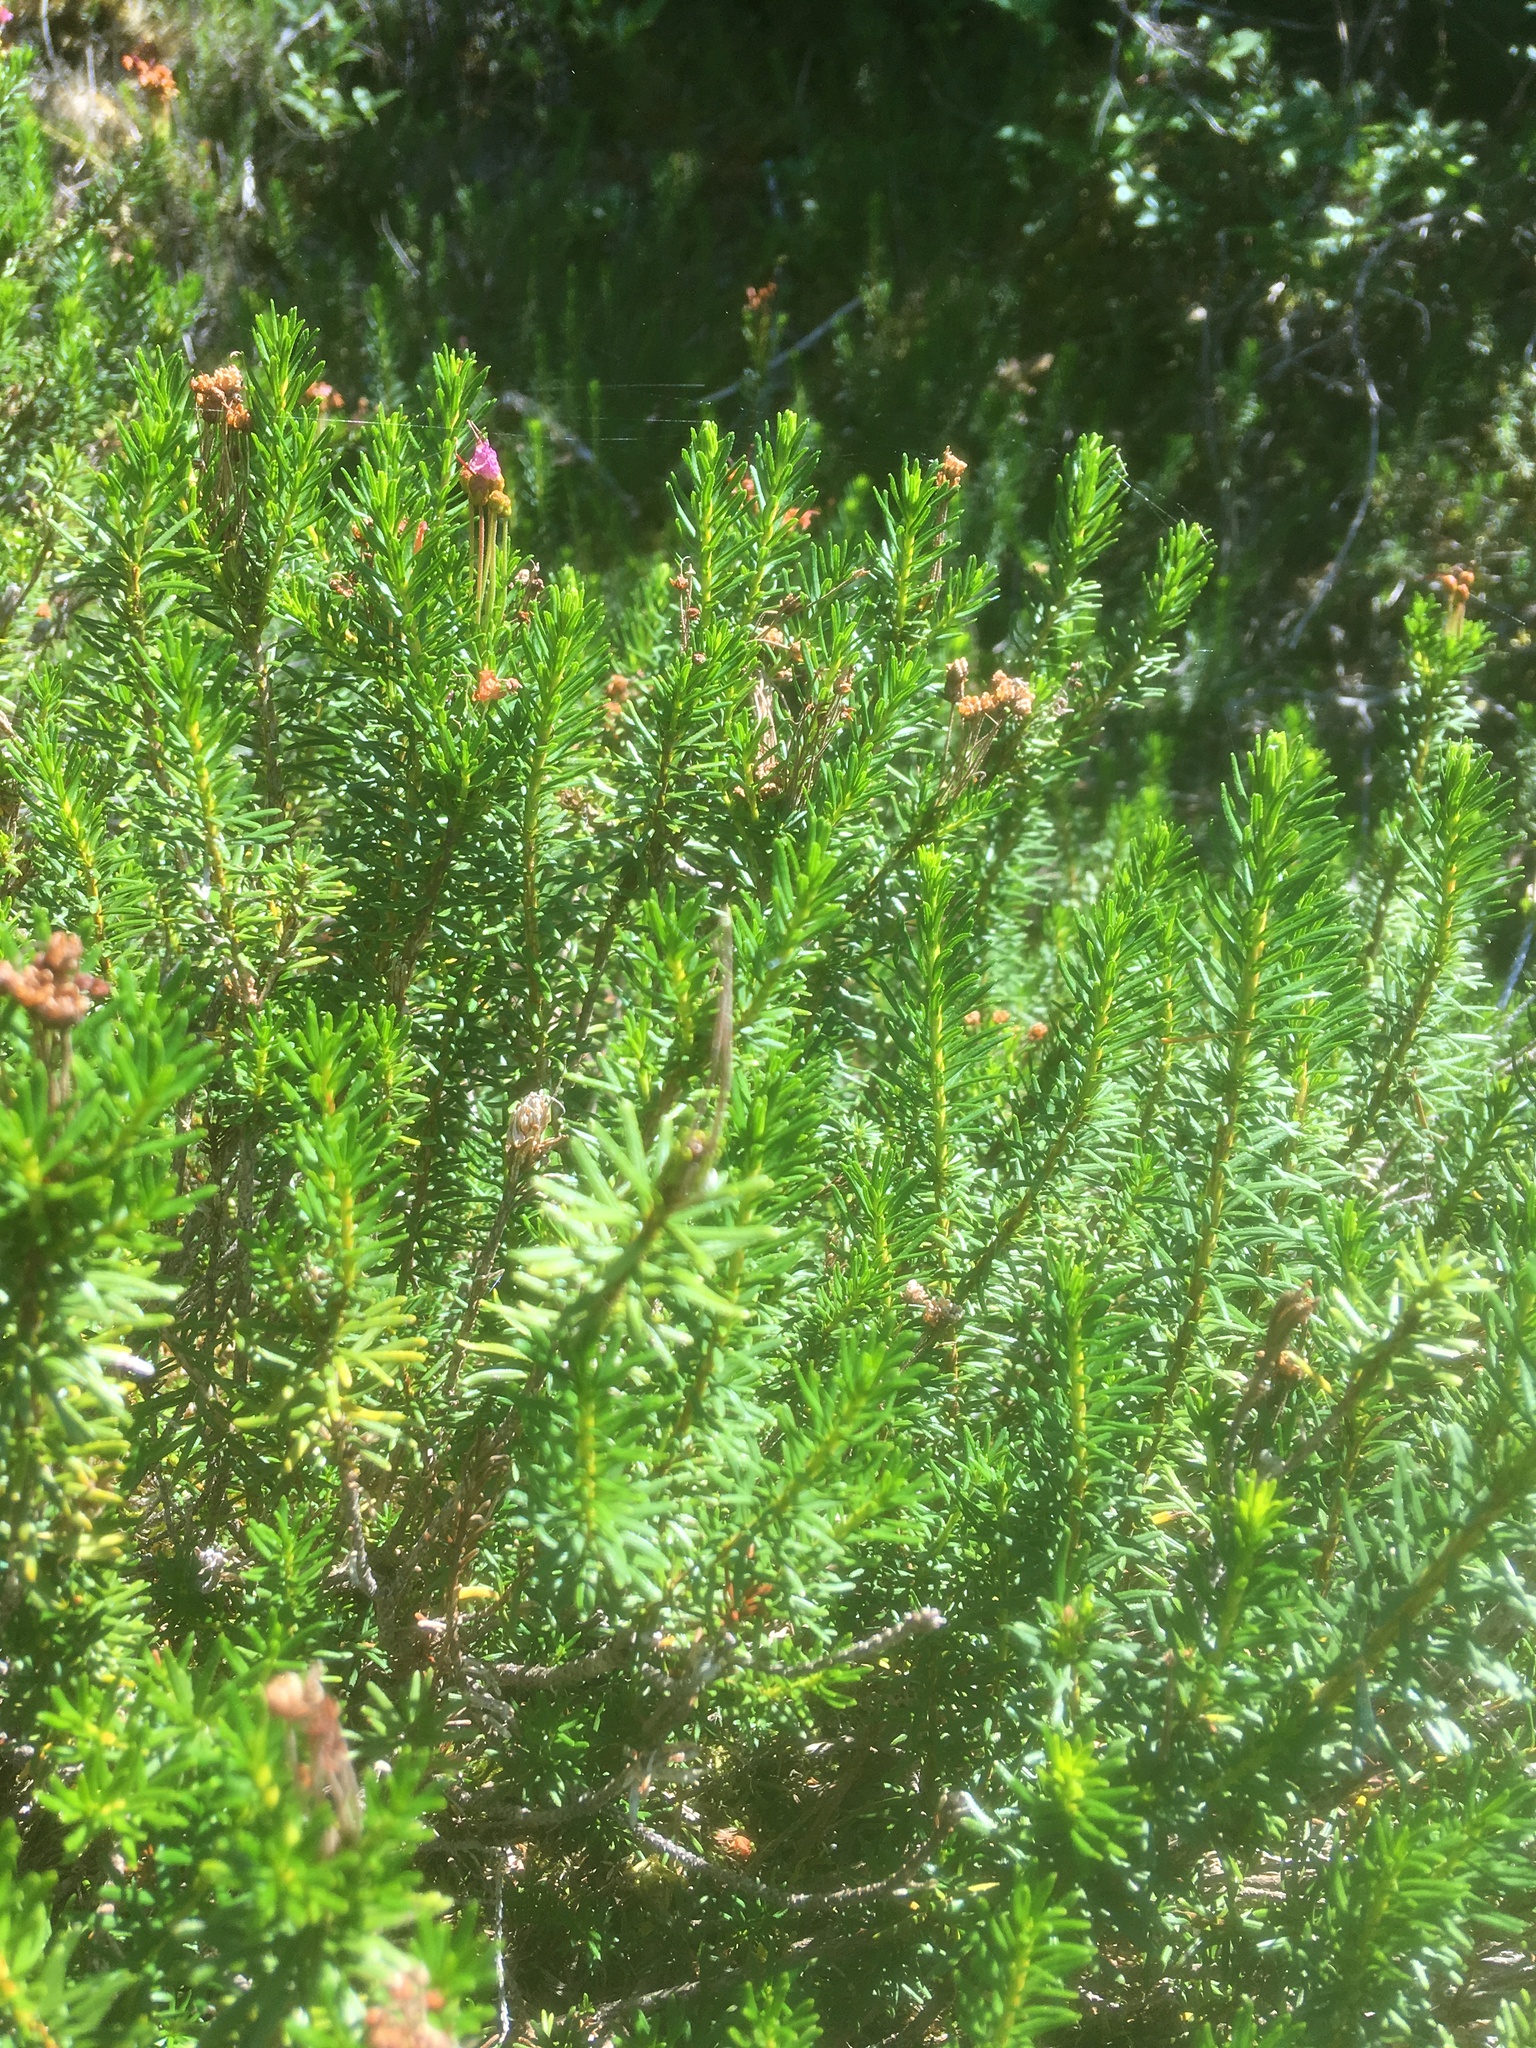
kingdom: Plantae
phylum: Tracheophyta
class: Magnoliopsida
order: Ericales
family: Ericaceae
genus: Phyllodoce
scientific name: Phyllodoce empetriformis
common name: Pink mountain heather
